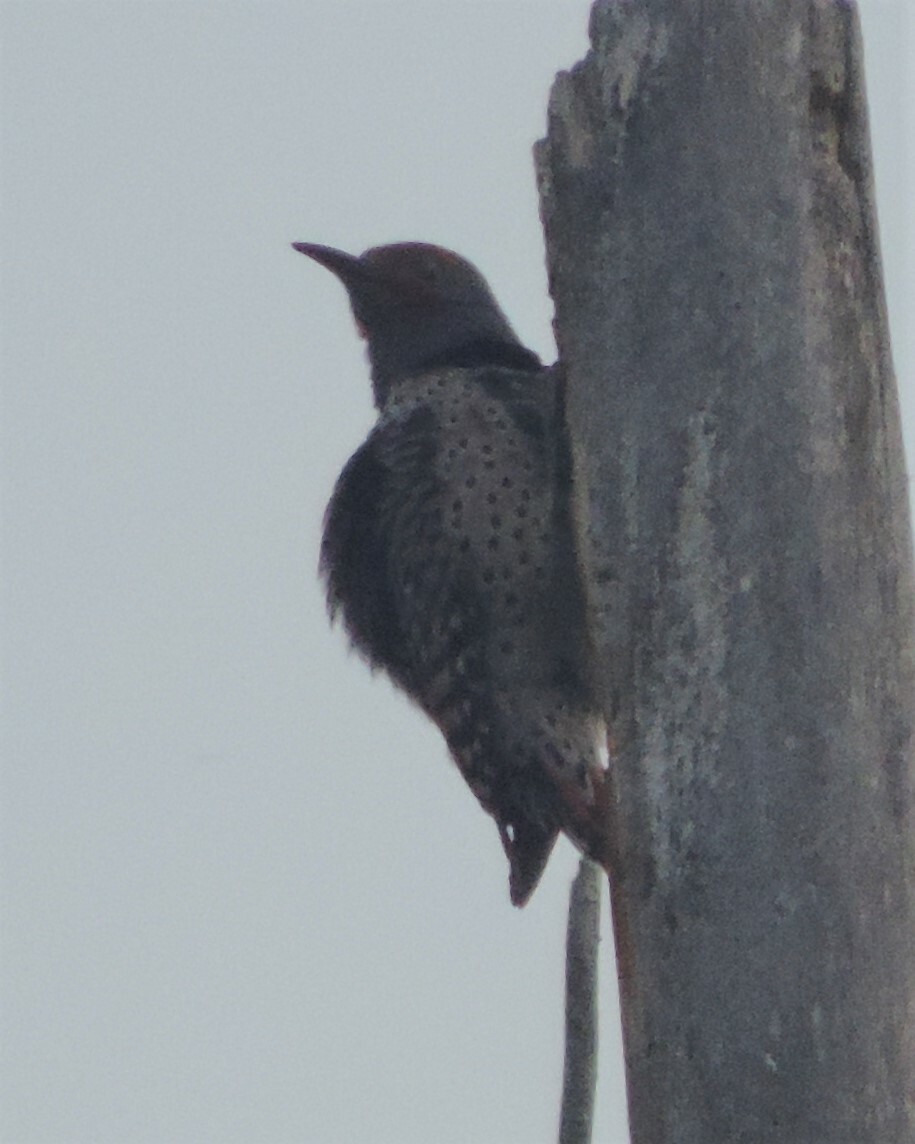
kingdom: Animalia
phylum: Chordata
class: Aves
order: Piciformes
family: Picidae
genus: Colaptes
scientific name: Colaptes auratus
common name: Northern flicker
